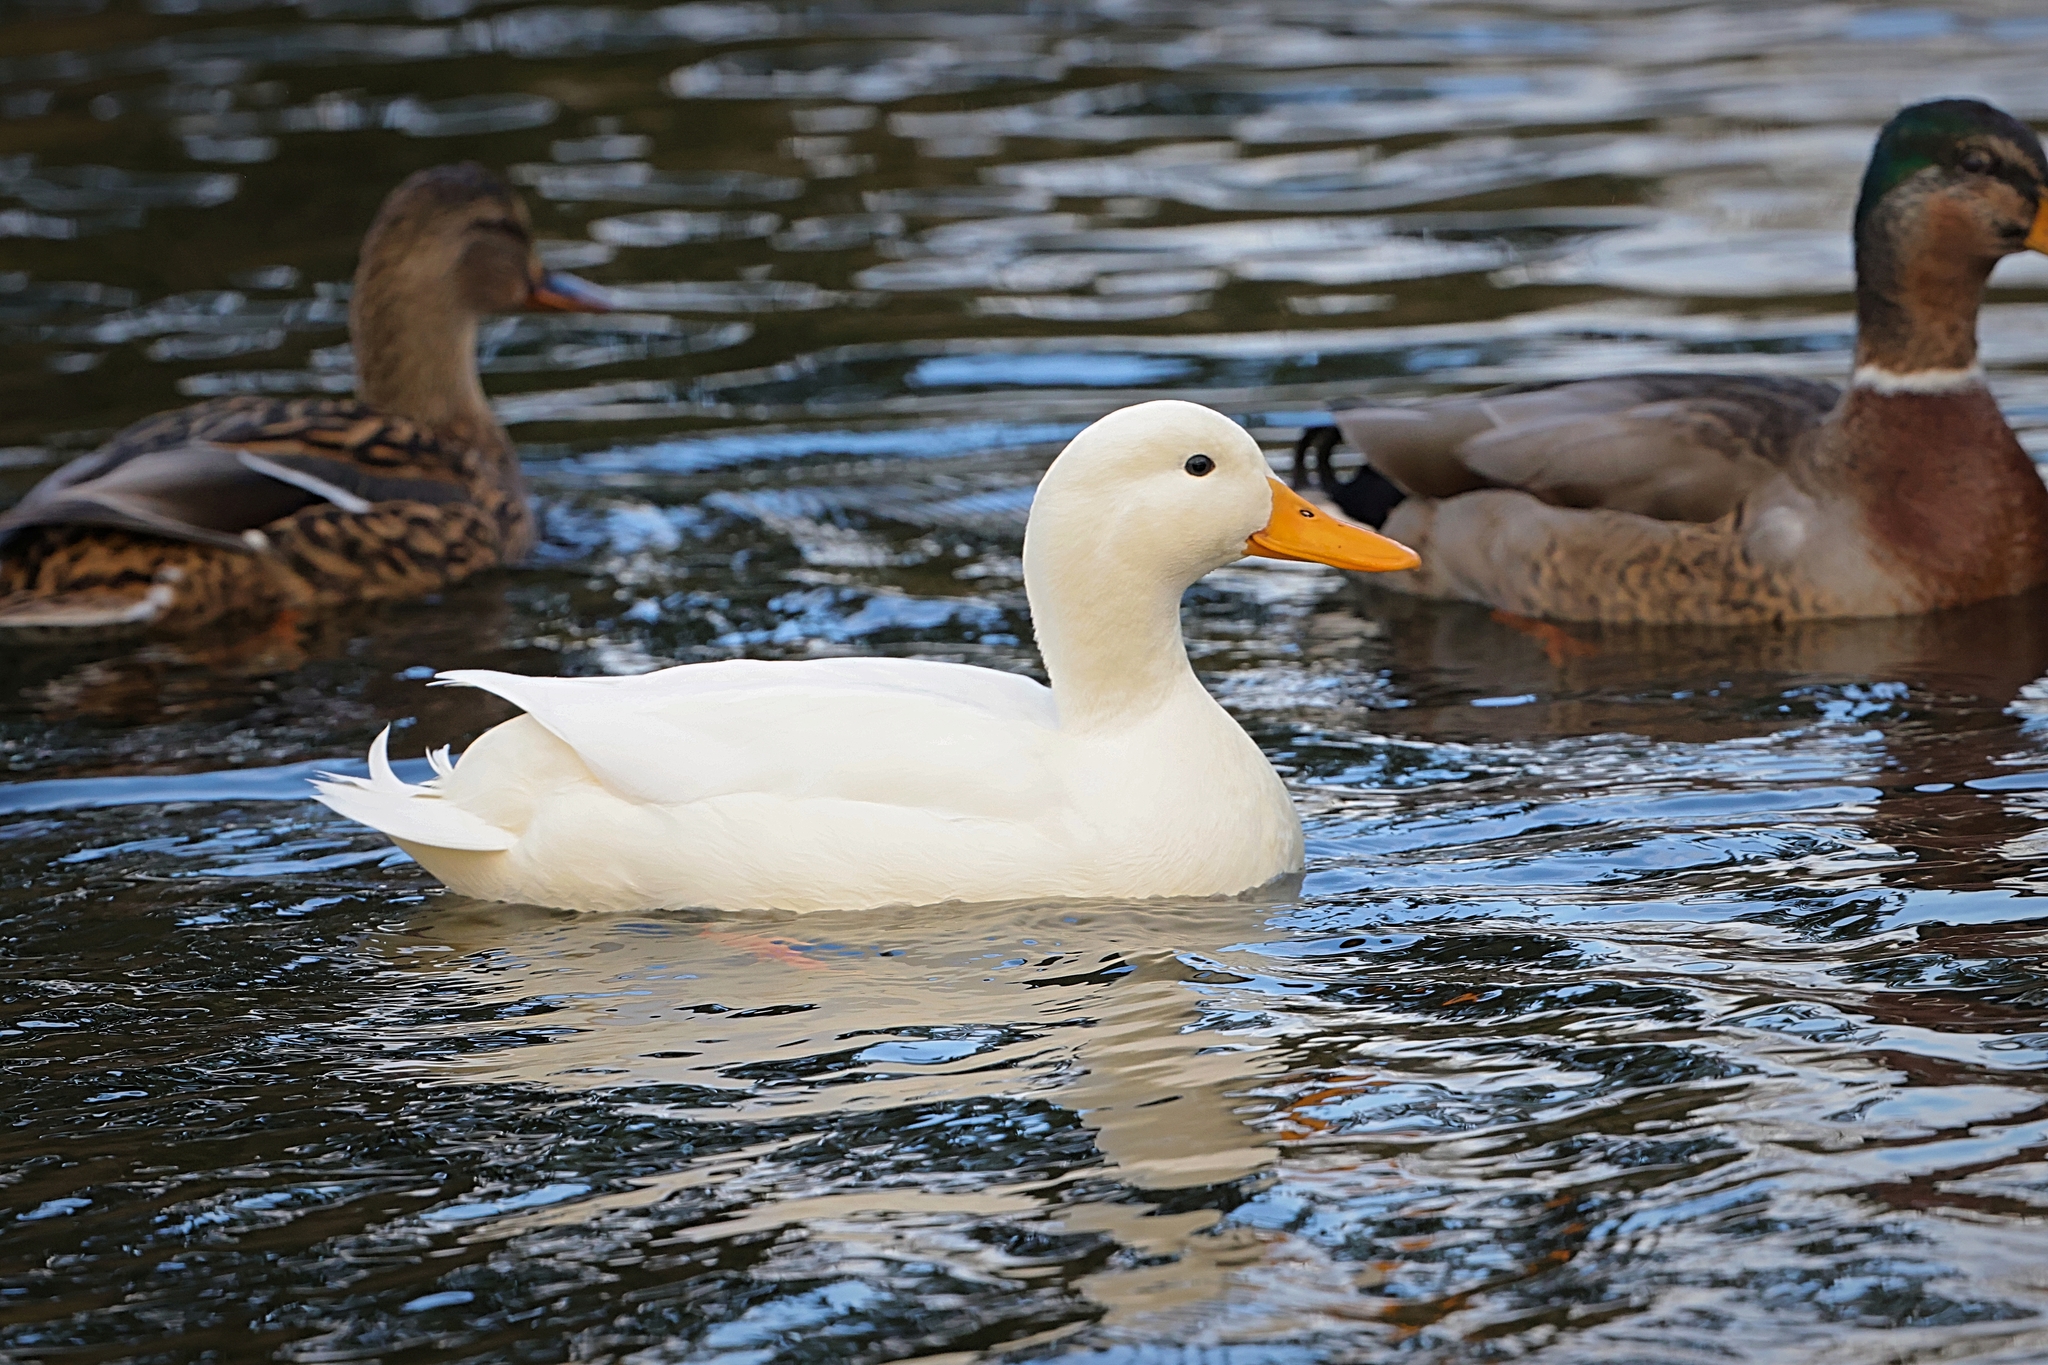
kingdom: Animalia
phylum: Chordata
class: Aves
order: Anseriformes
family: Anatidae
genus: Anas
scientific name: Anas platyrhynchos
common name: Mallard
